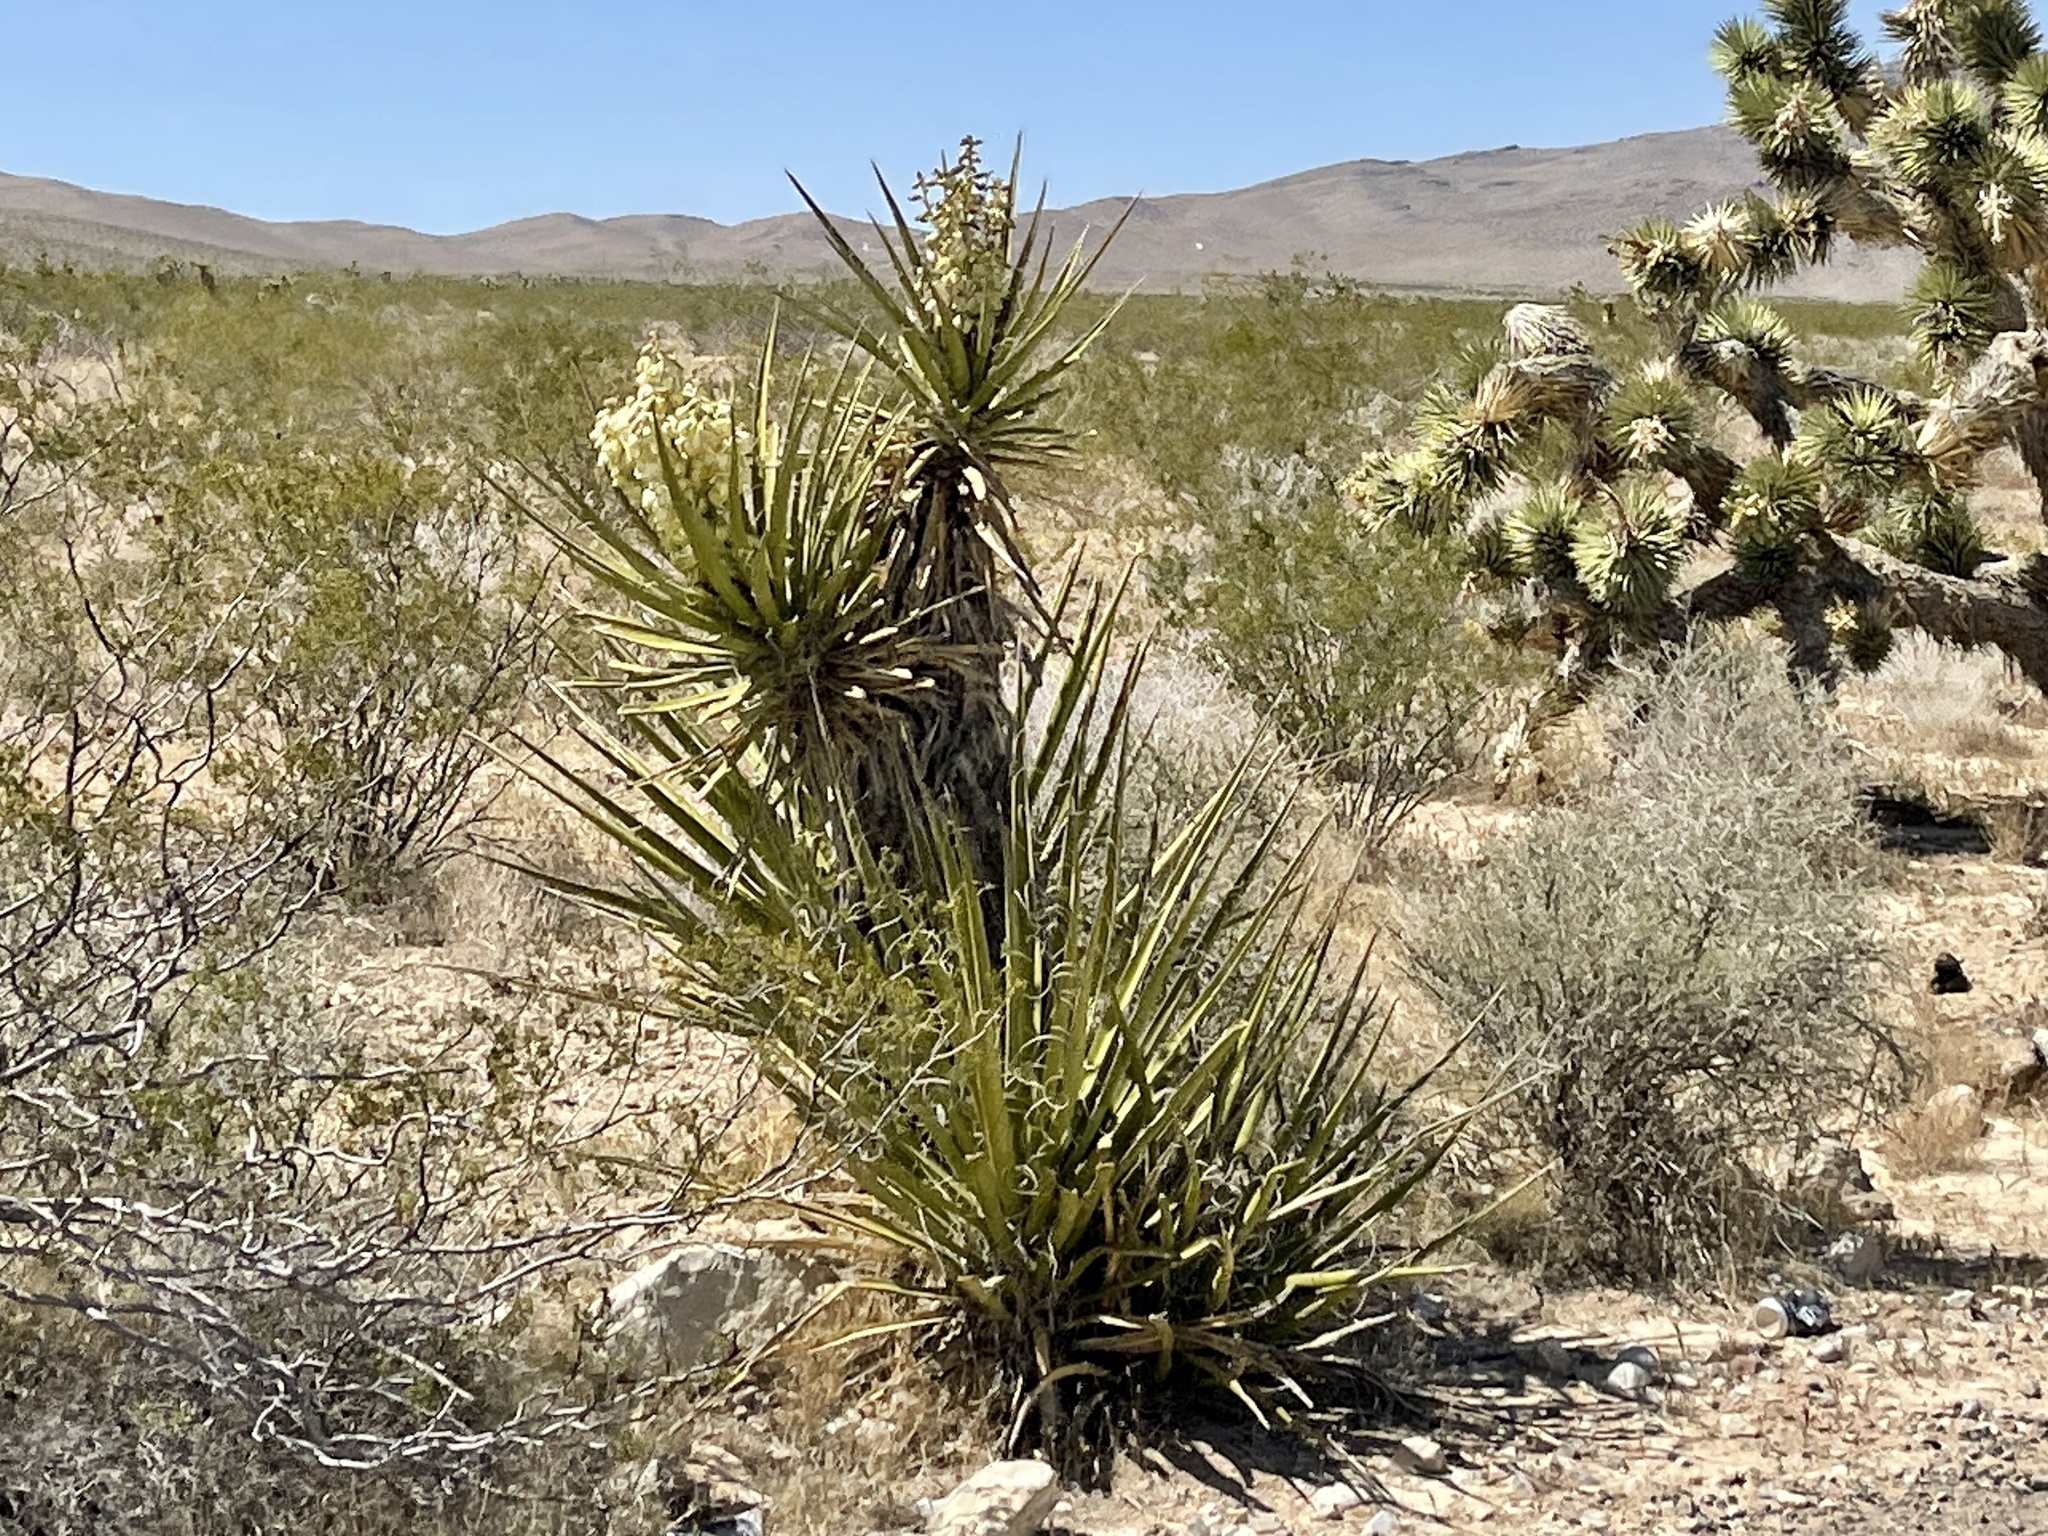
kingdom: Plantae
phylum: Tracheophyta
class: Liliopsida
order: Asparagales
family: Asparagaceae
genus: Yucca
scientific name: Yucca schidigera
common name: Mojave yucca
